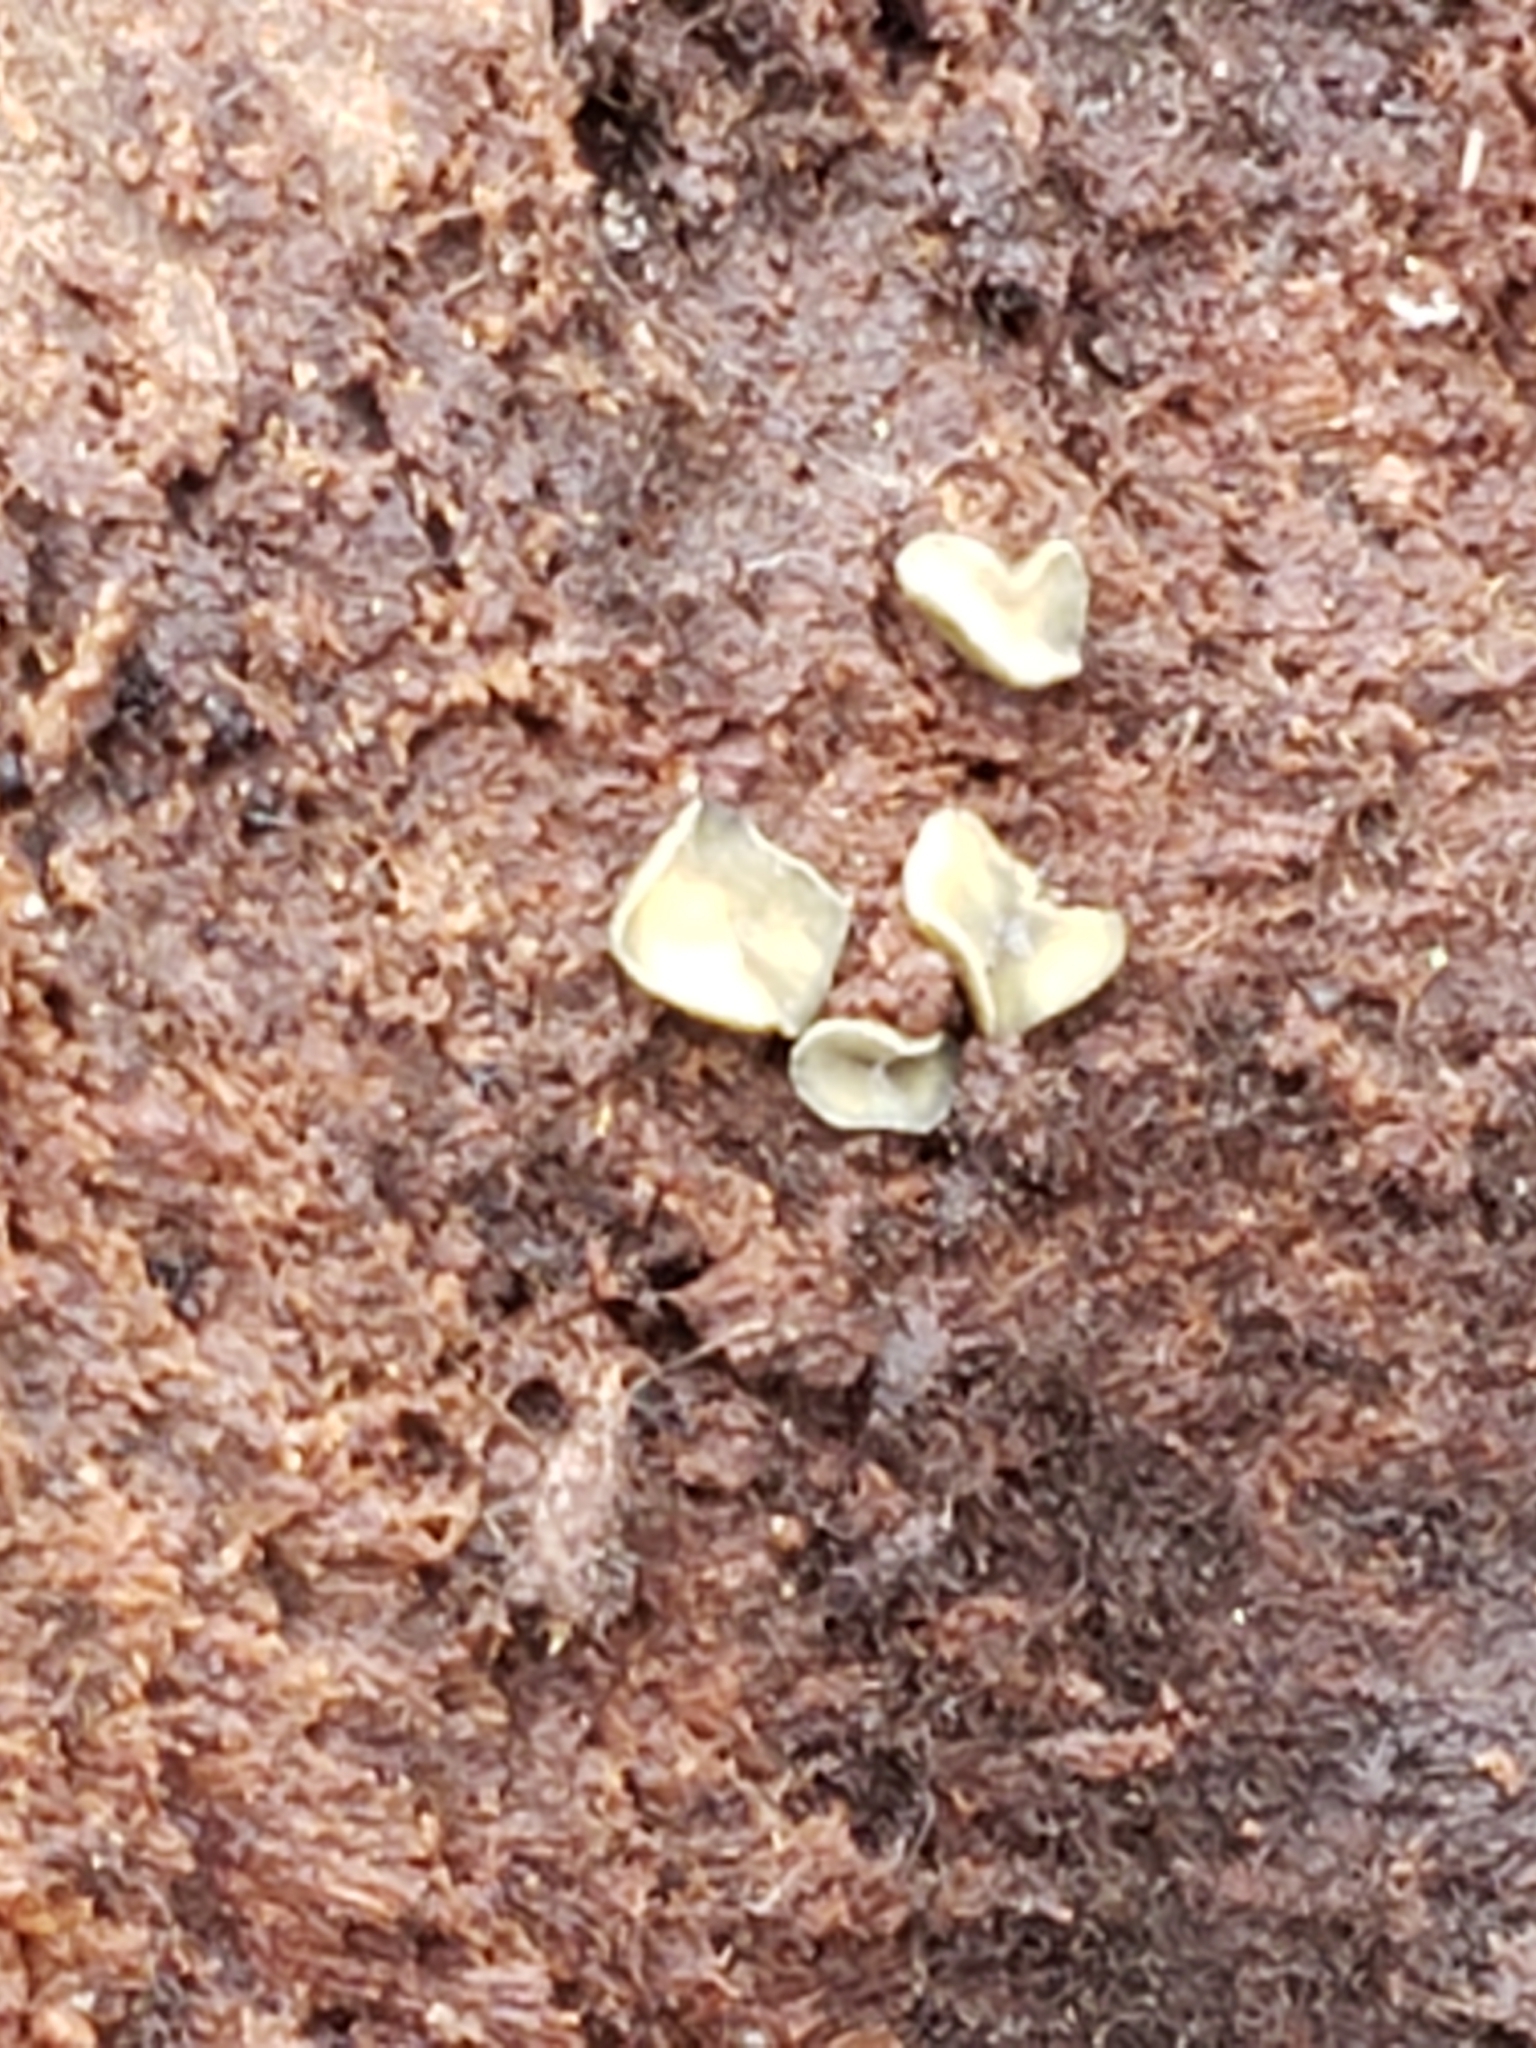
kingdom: Fungi
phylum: Ascomycota
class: Leotiomycetes
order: Helotiales
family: Chlorospleniaceae
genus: Chlorosplenium
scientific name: Chlorosplenium chlora
